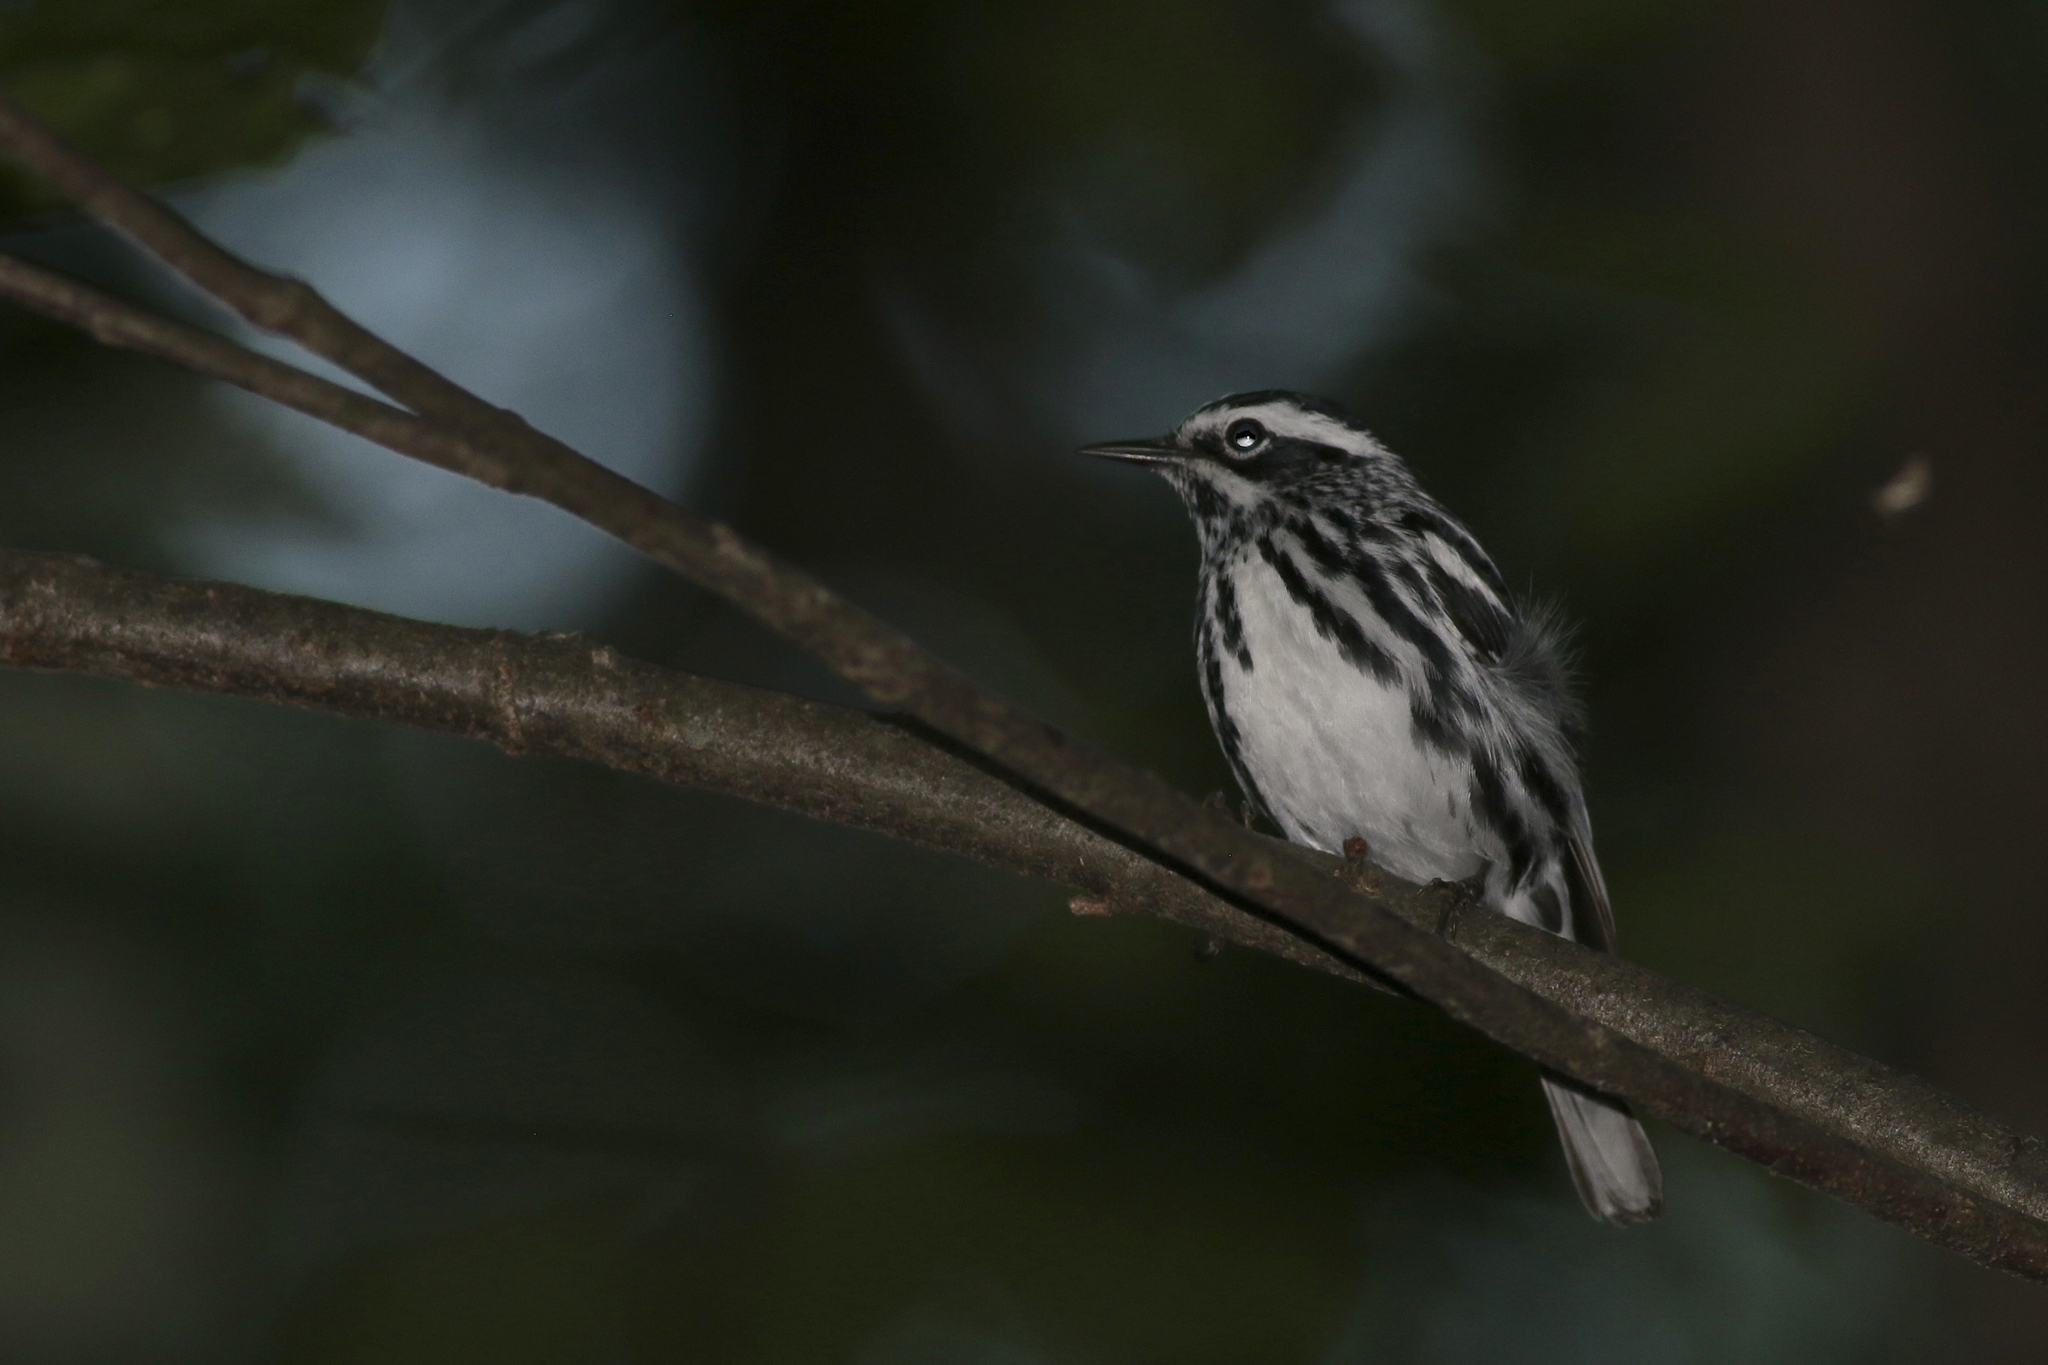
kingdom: Animalia
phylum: Chordata
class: Aves
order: Passeriformes
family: Parulidae
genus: Mniotilta
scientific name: Mniotilta varia
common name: Black-and-white warbler
